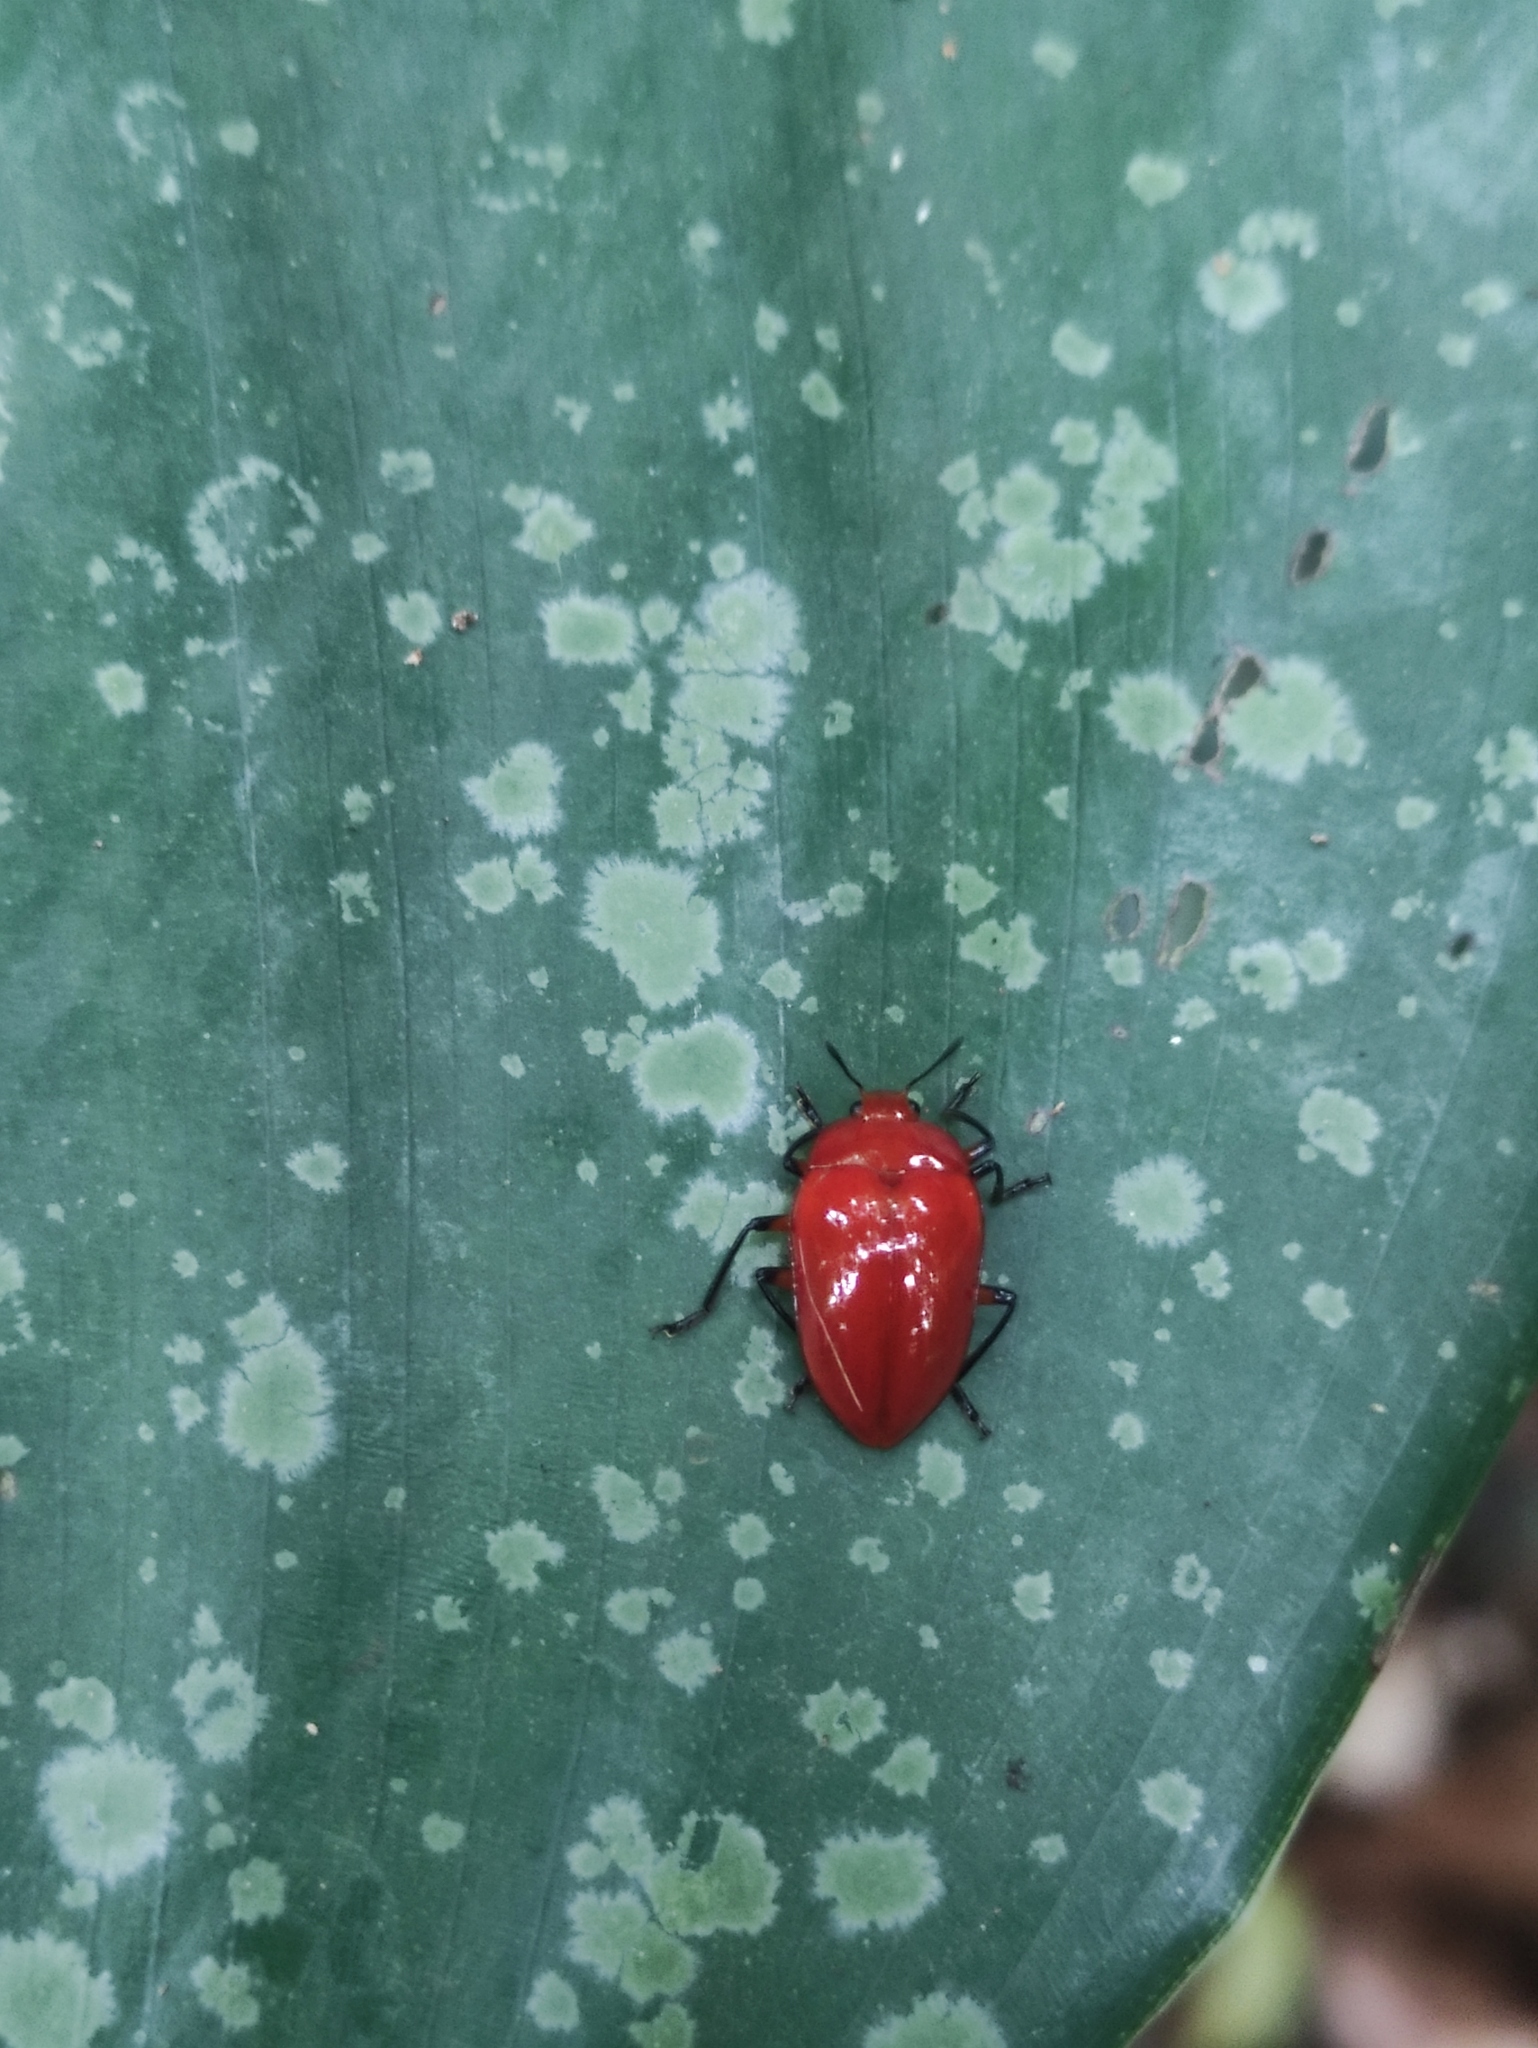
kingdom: Animalia
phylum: Arthropoda
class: Insecta
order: Coleoptera
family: Erotylidae
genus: Iphiclus
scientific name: Iphiclus
